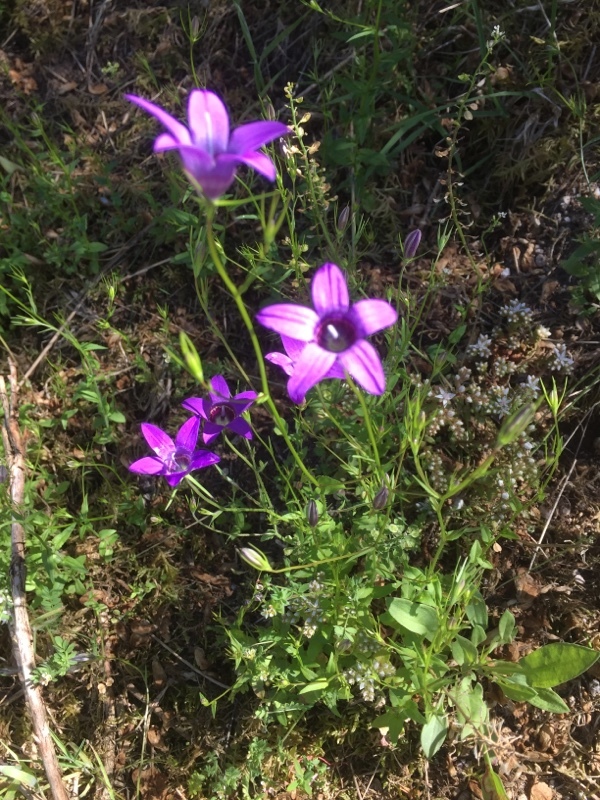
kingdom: Plantae
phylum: Tracheophyta
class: Magnoliopsida
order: Asterales
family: Campanulaceae
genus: Campanula
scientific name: Campanula lusitanica
